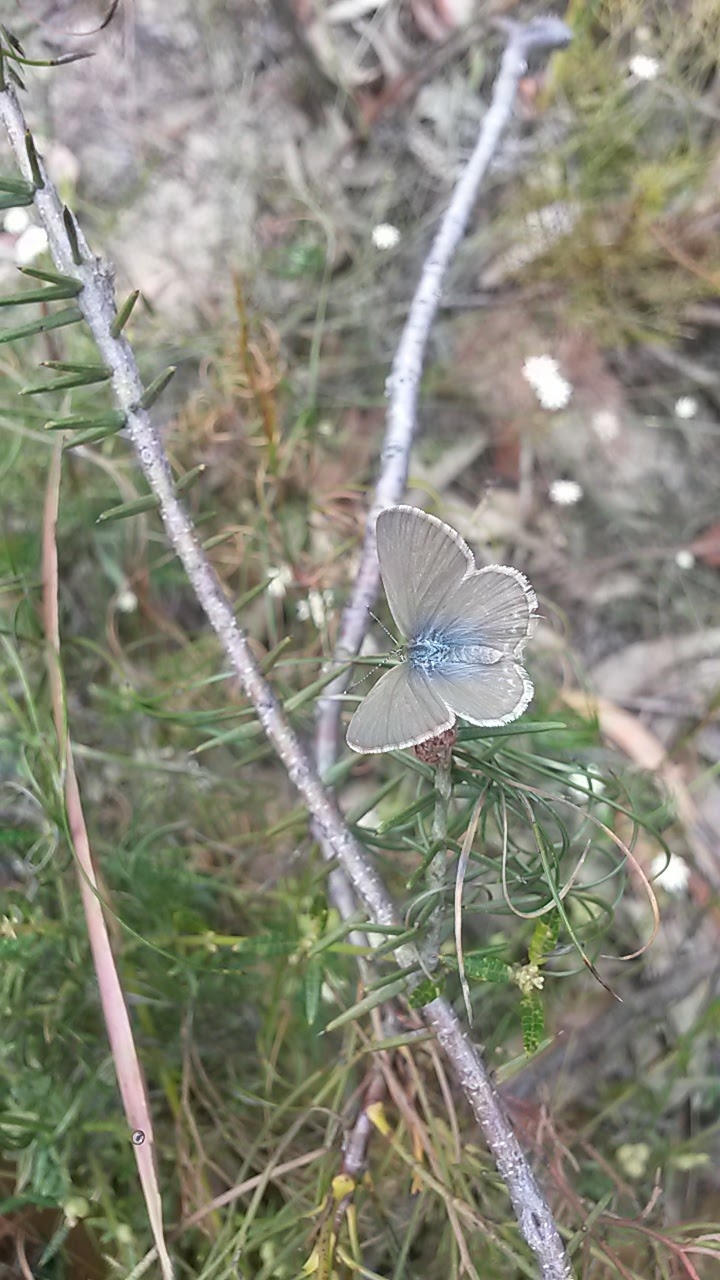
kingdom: Animalia
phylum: Arthropoda
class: Insecta
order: Lepidoptera
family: Lycaenidae
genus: Zizina
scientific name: Zizina labradus
